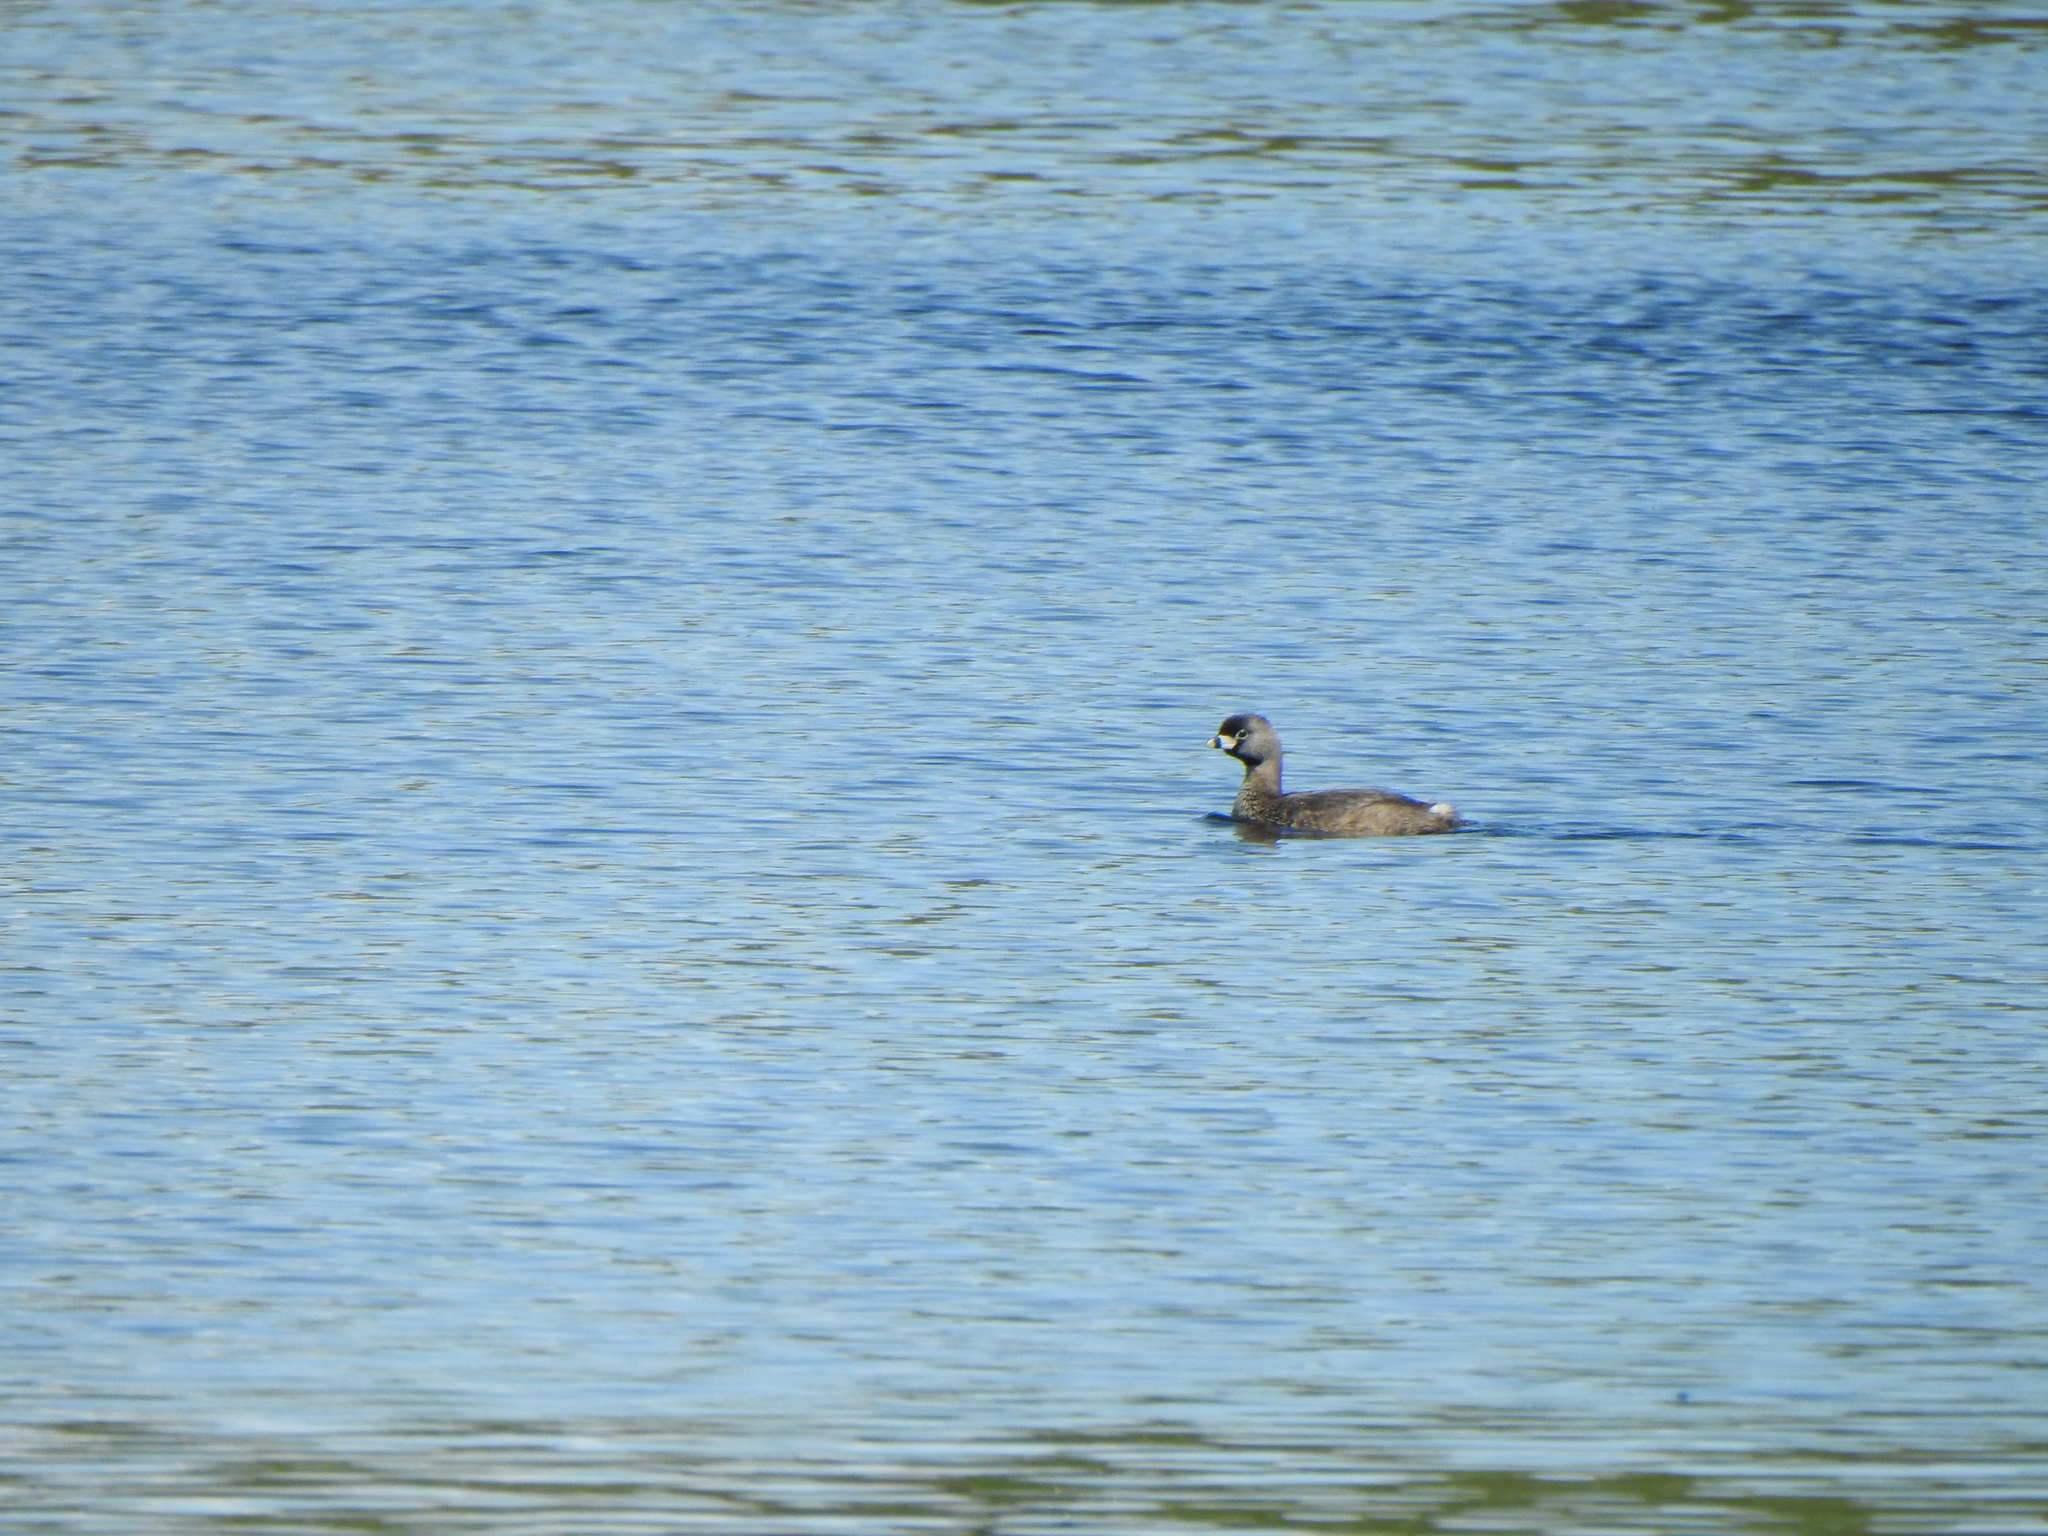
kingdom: Animalia
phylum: Chordata
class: Aves
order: Podicipediformes
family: Podicipedidae
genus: Podilymbus
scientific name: Podilymbus podiceps
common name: Pied-billed grebe
